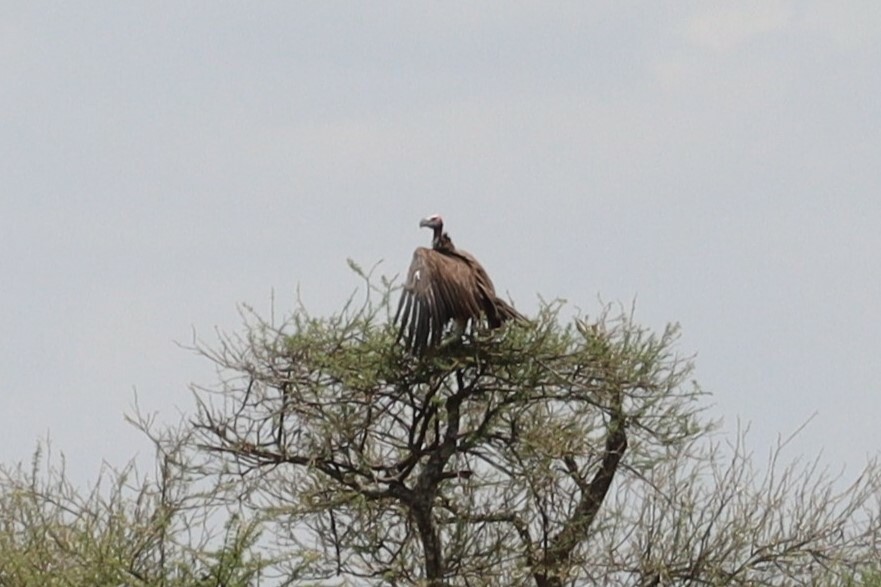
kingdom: Animalia
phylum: Chordata
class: Aves
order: Accipitriformes
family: Accipitridae
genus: Torgos
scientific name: Torgos tracheliotos
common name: Lappet-faced vulture
